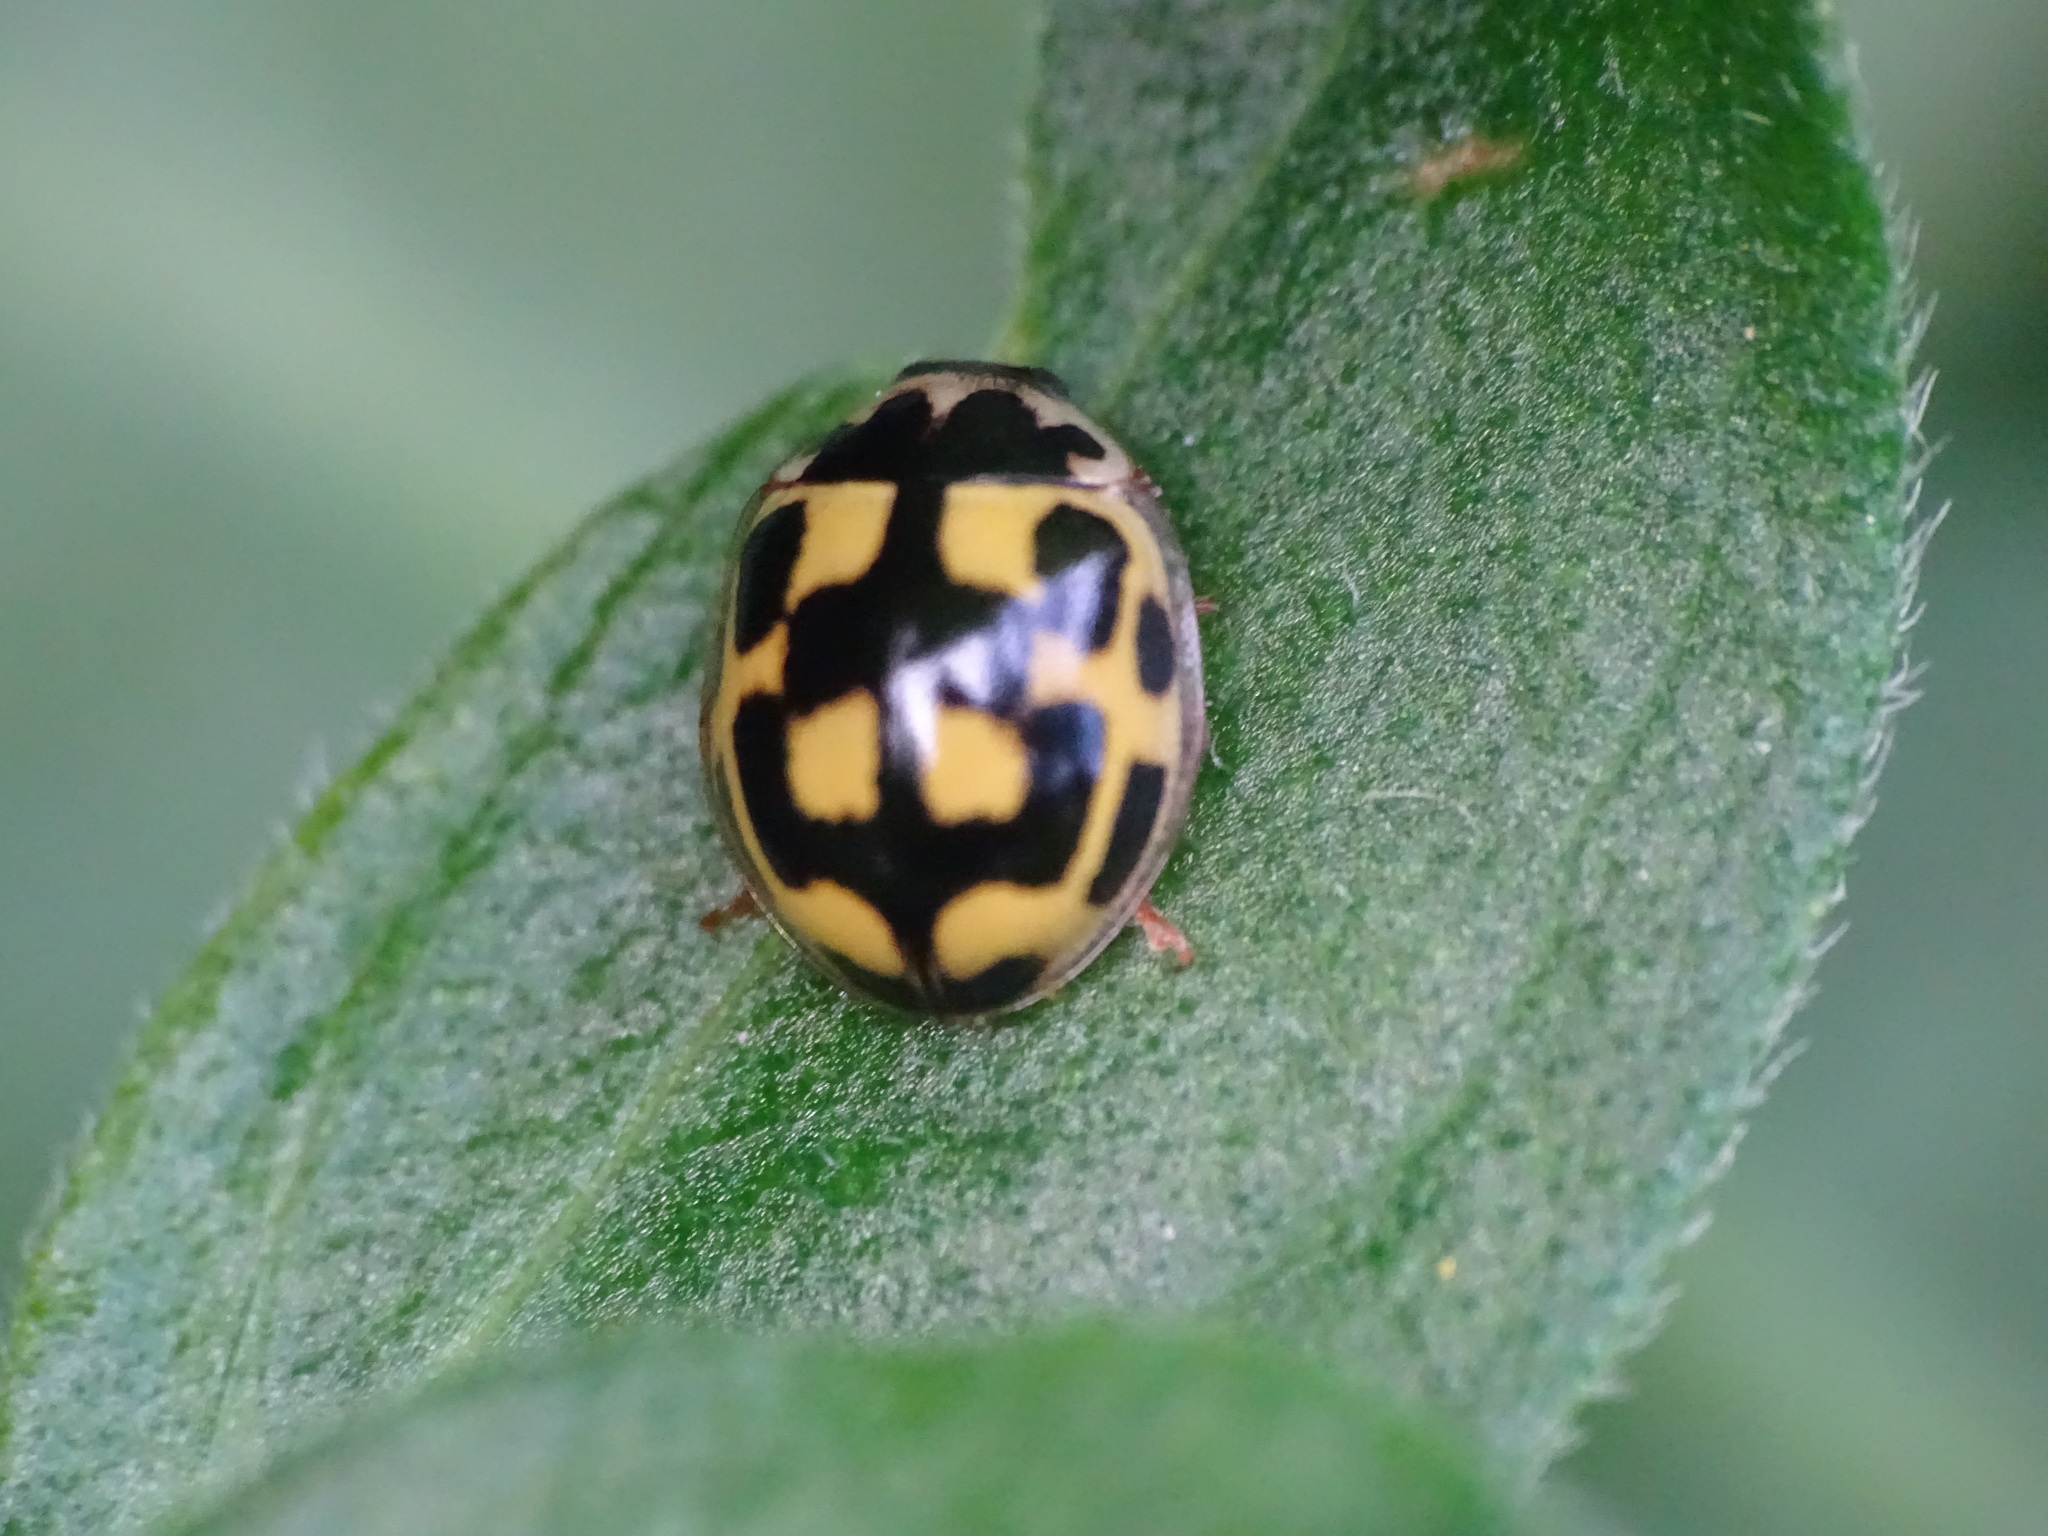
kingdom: Animalia
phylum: Arthropoda
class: Insecta
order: Coleoptera
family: Coccinellidae
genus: Propylaea
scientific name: Propylaea quatuordecimpunctata
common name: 14-spotted ladybird beetle
